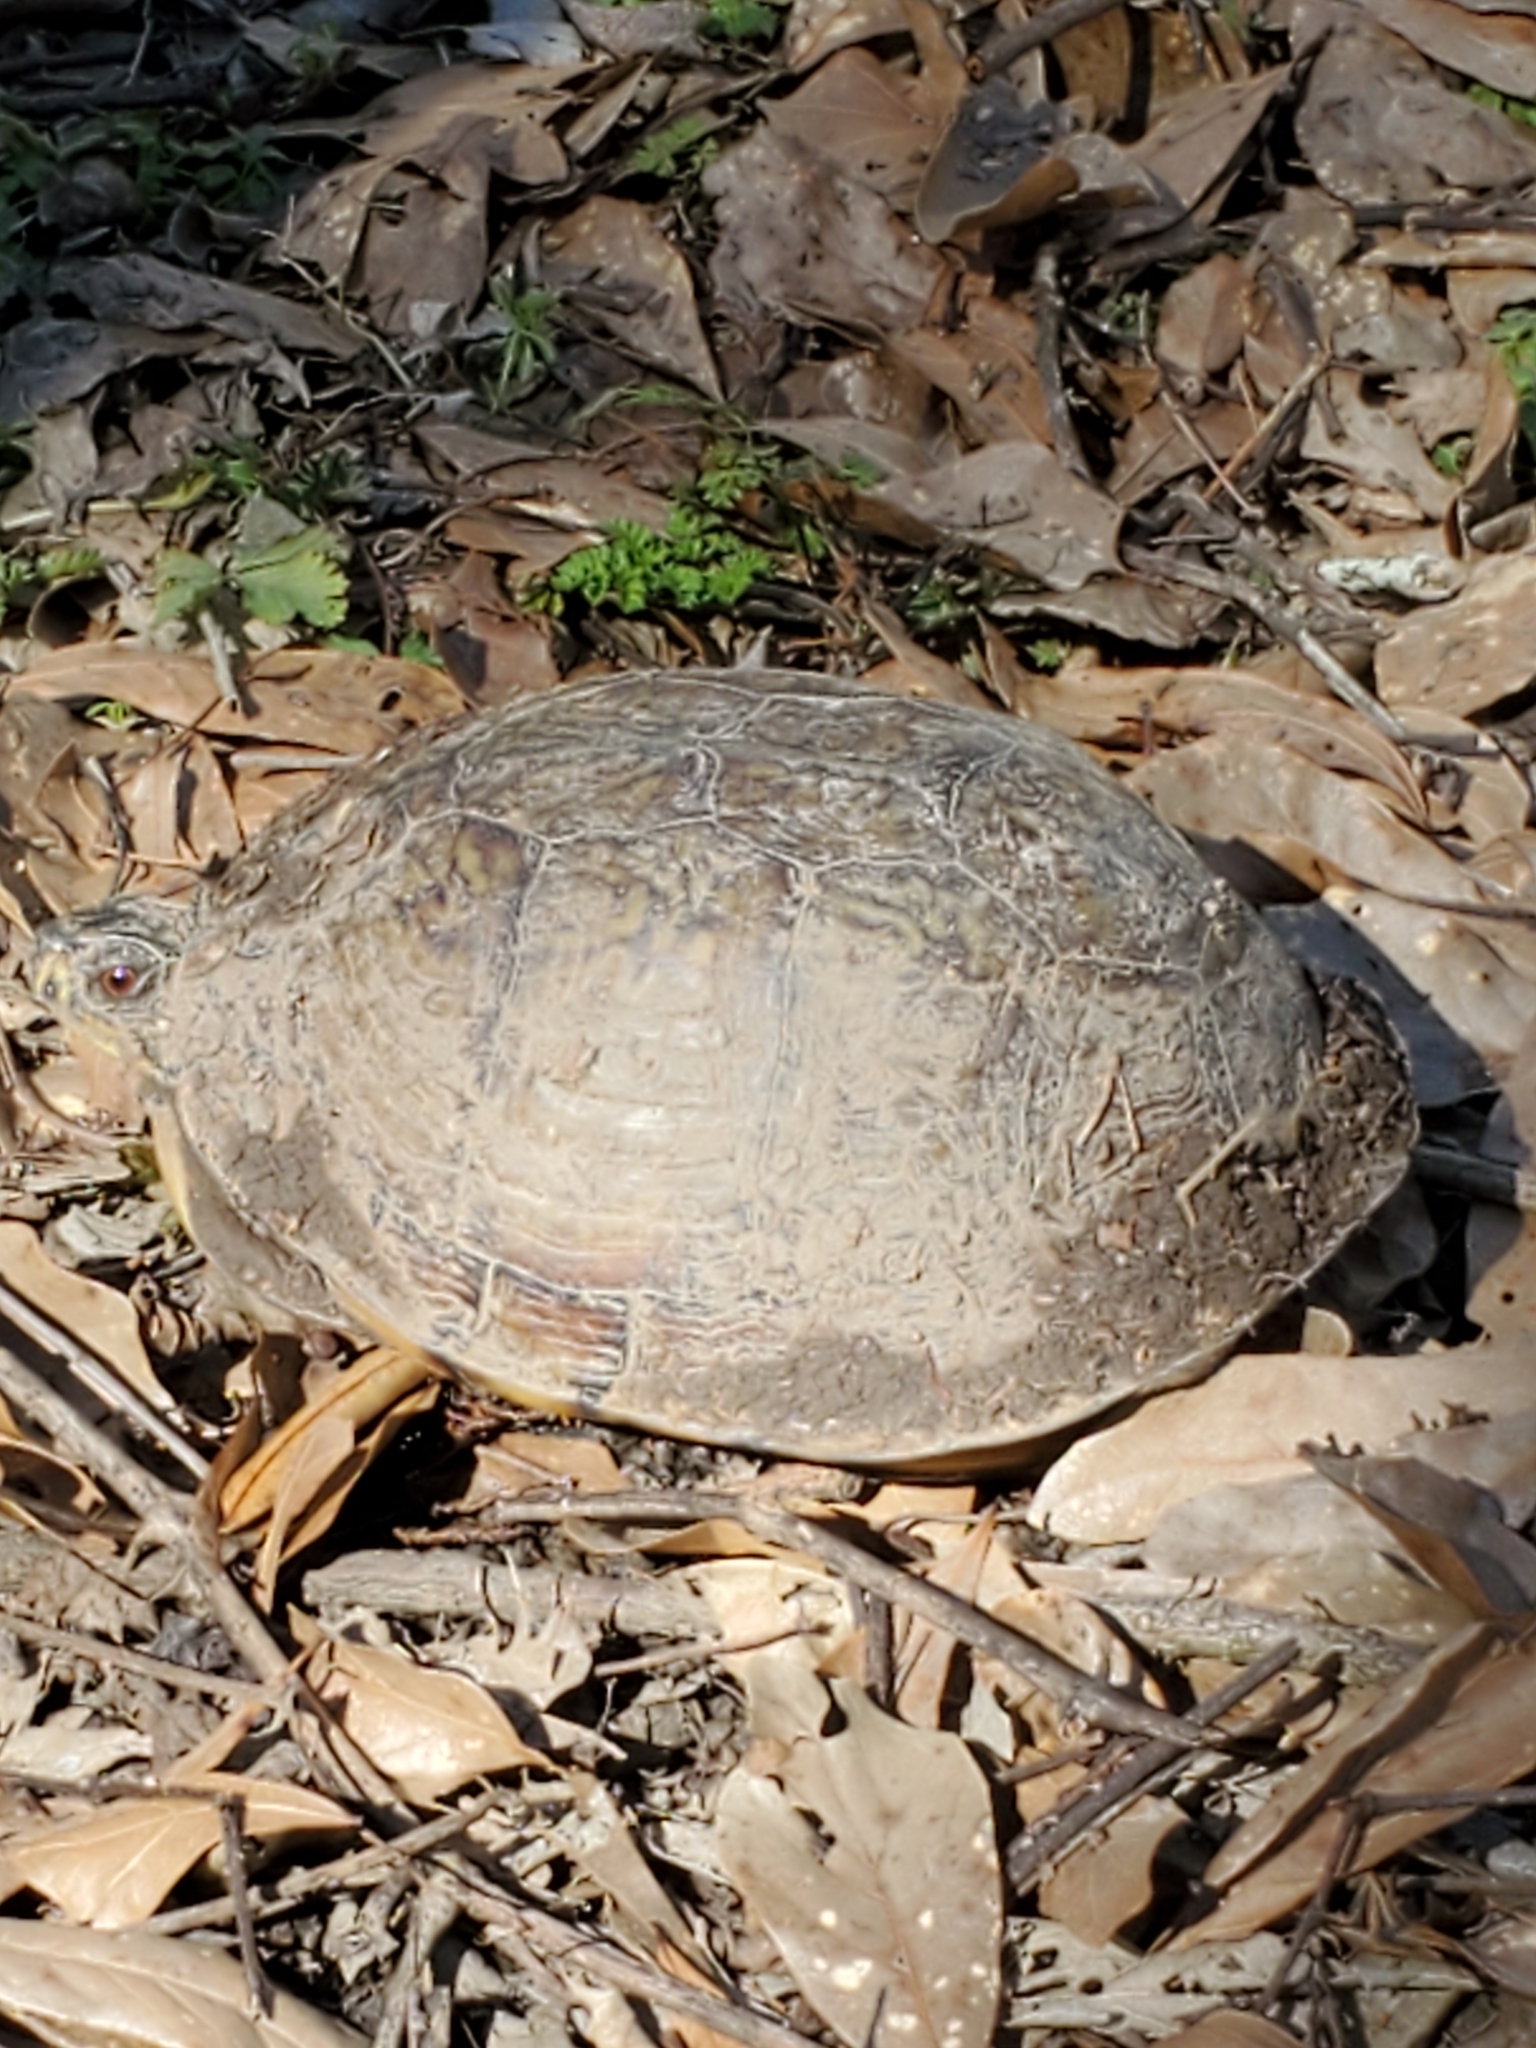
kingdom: Animalia
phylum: Chordata
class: Testudines
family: Emydidae
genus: Terrapene
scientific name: Terrapene carolina
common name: Common box turtle
